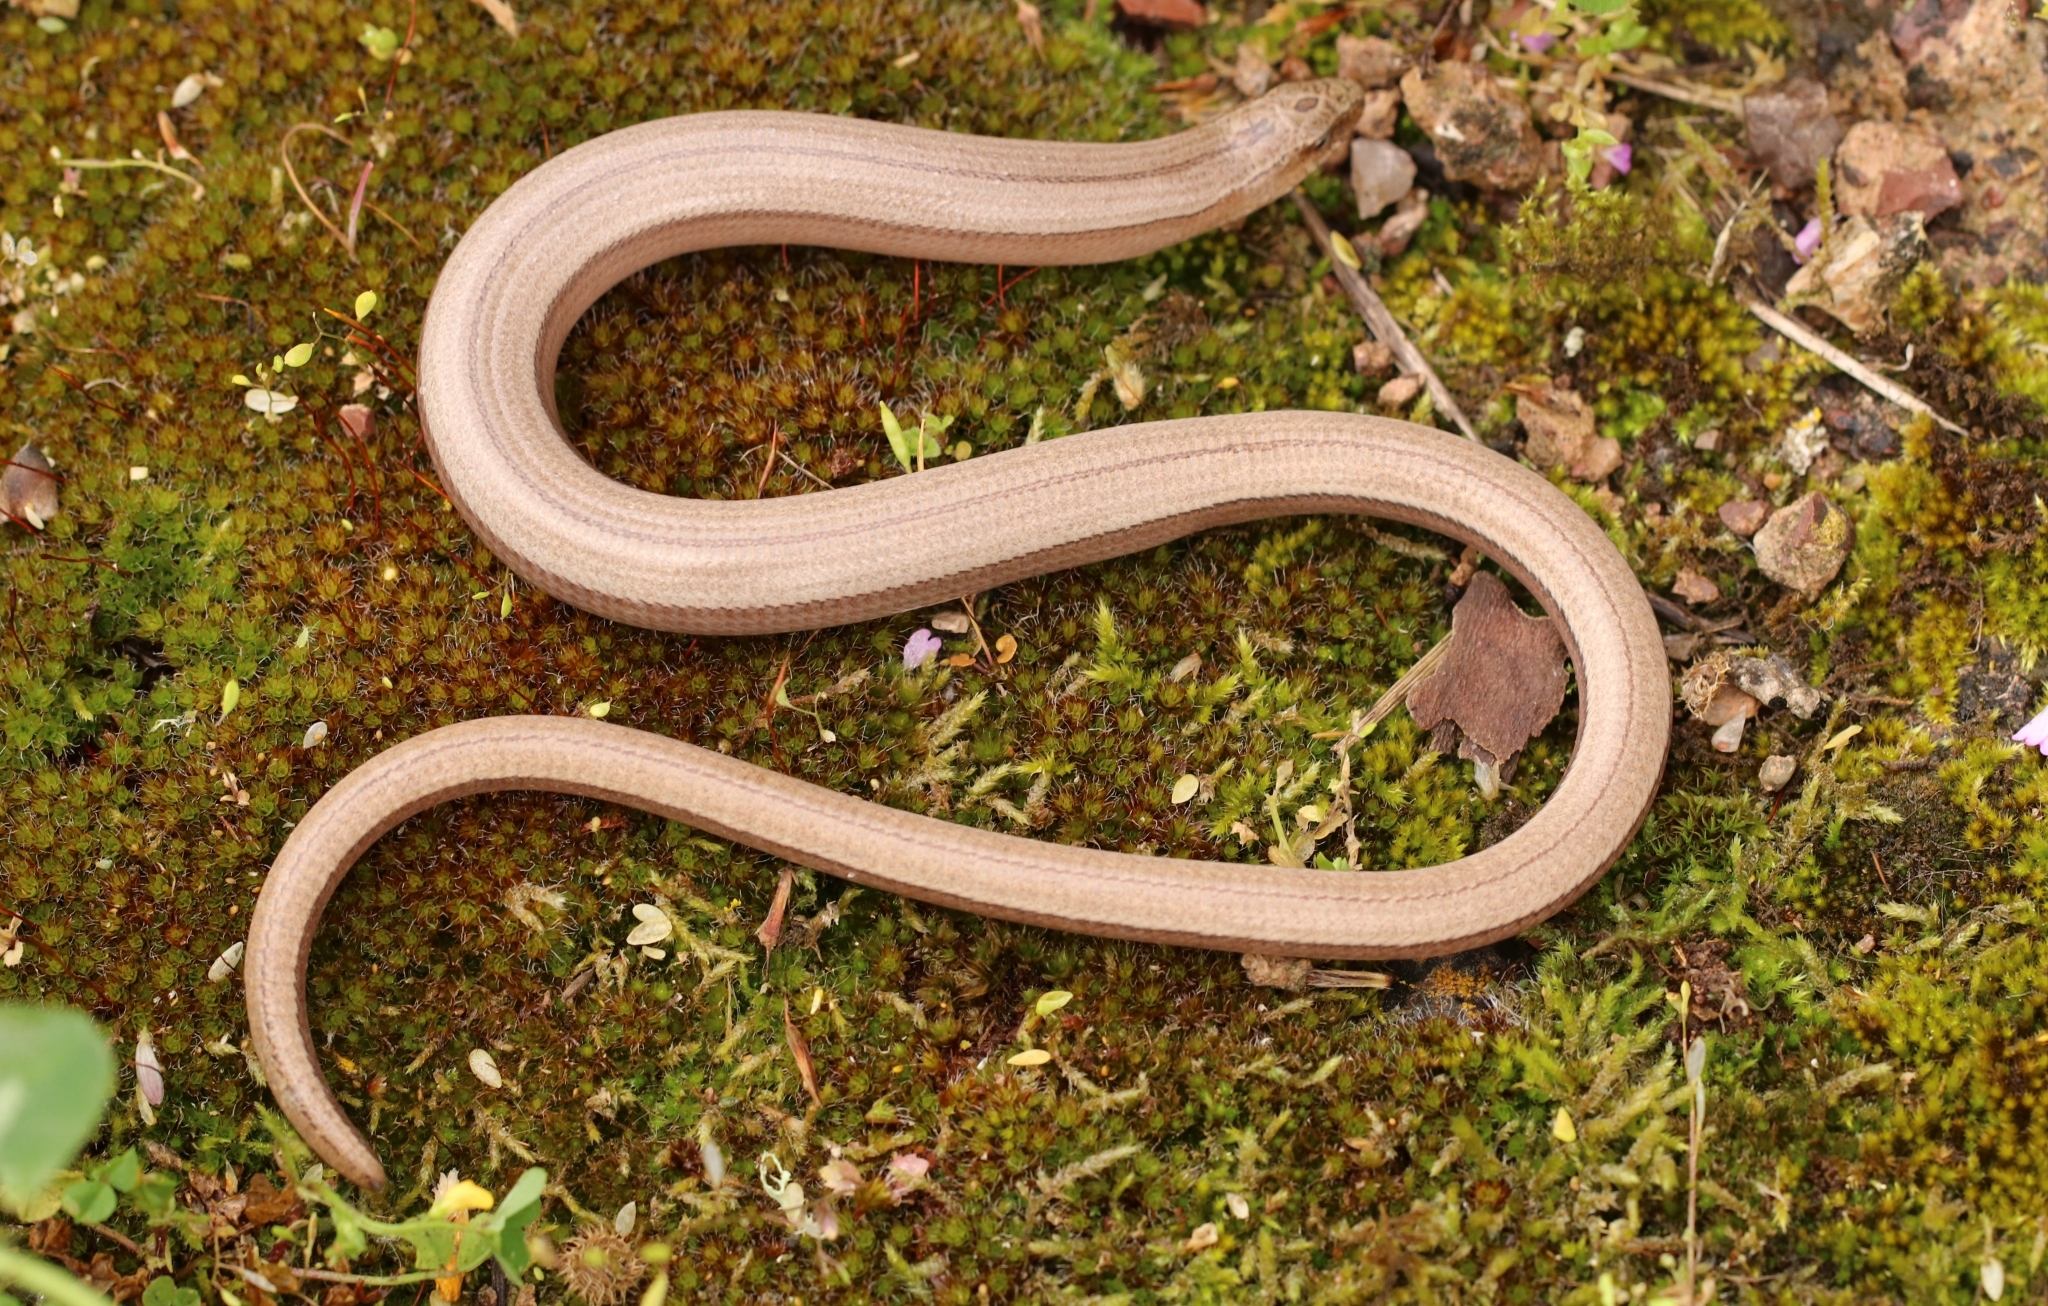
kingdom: Animalia
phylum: Chordata
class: Squamata
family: Anguidae
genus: Anguis
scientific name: Anguis graeca
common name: Greek slow worm
